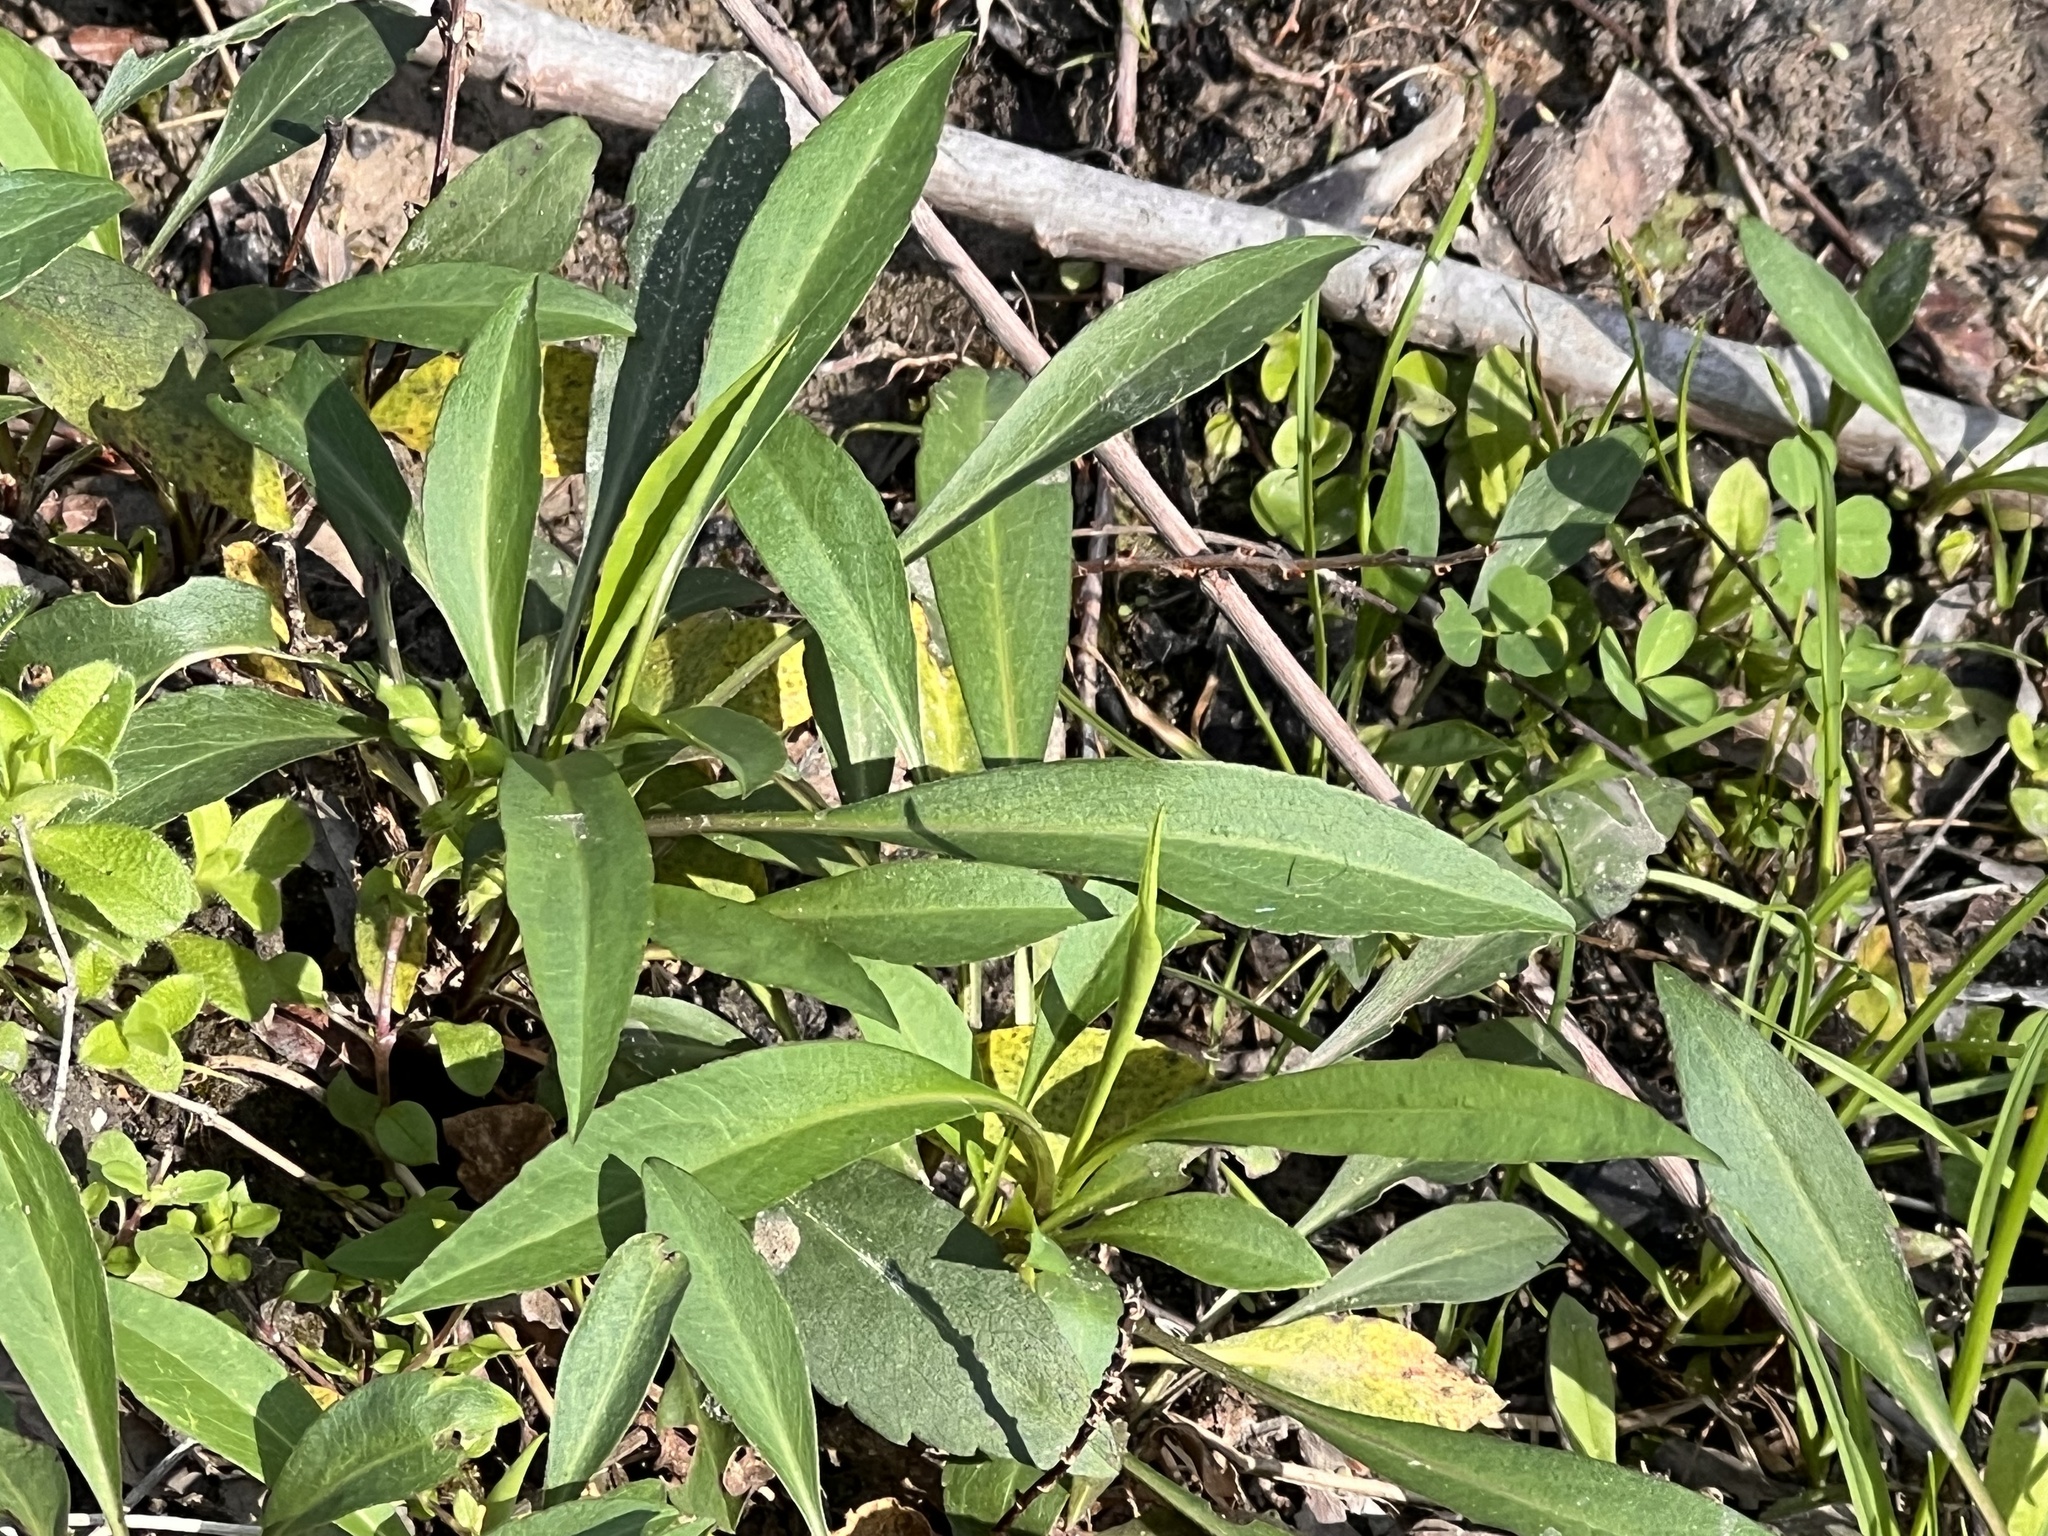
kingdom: Plantae
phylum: Tracheophyta
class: Magnoliopsida
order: Caryophyllales
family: Amaranthaceae
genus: Alternanthera
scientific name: Alternanthera philoxeroides
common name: Alligatorweed
